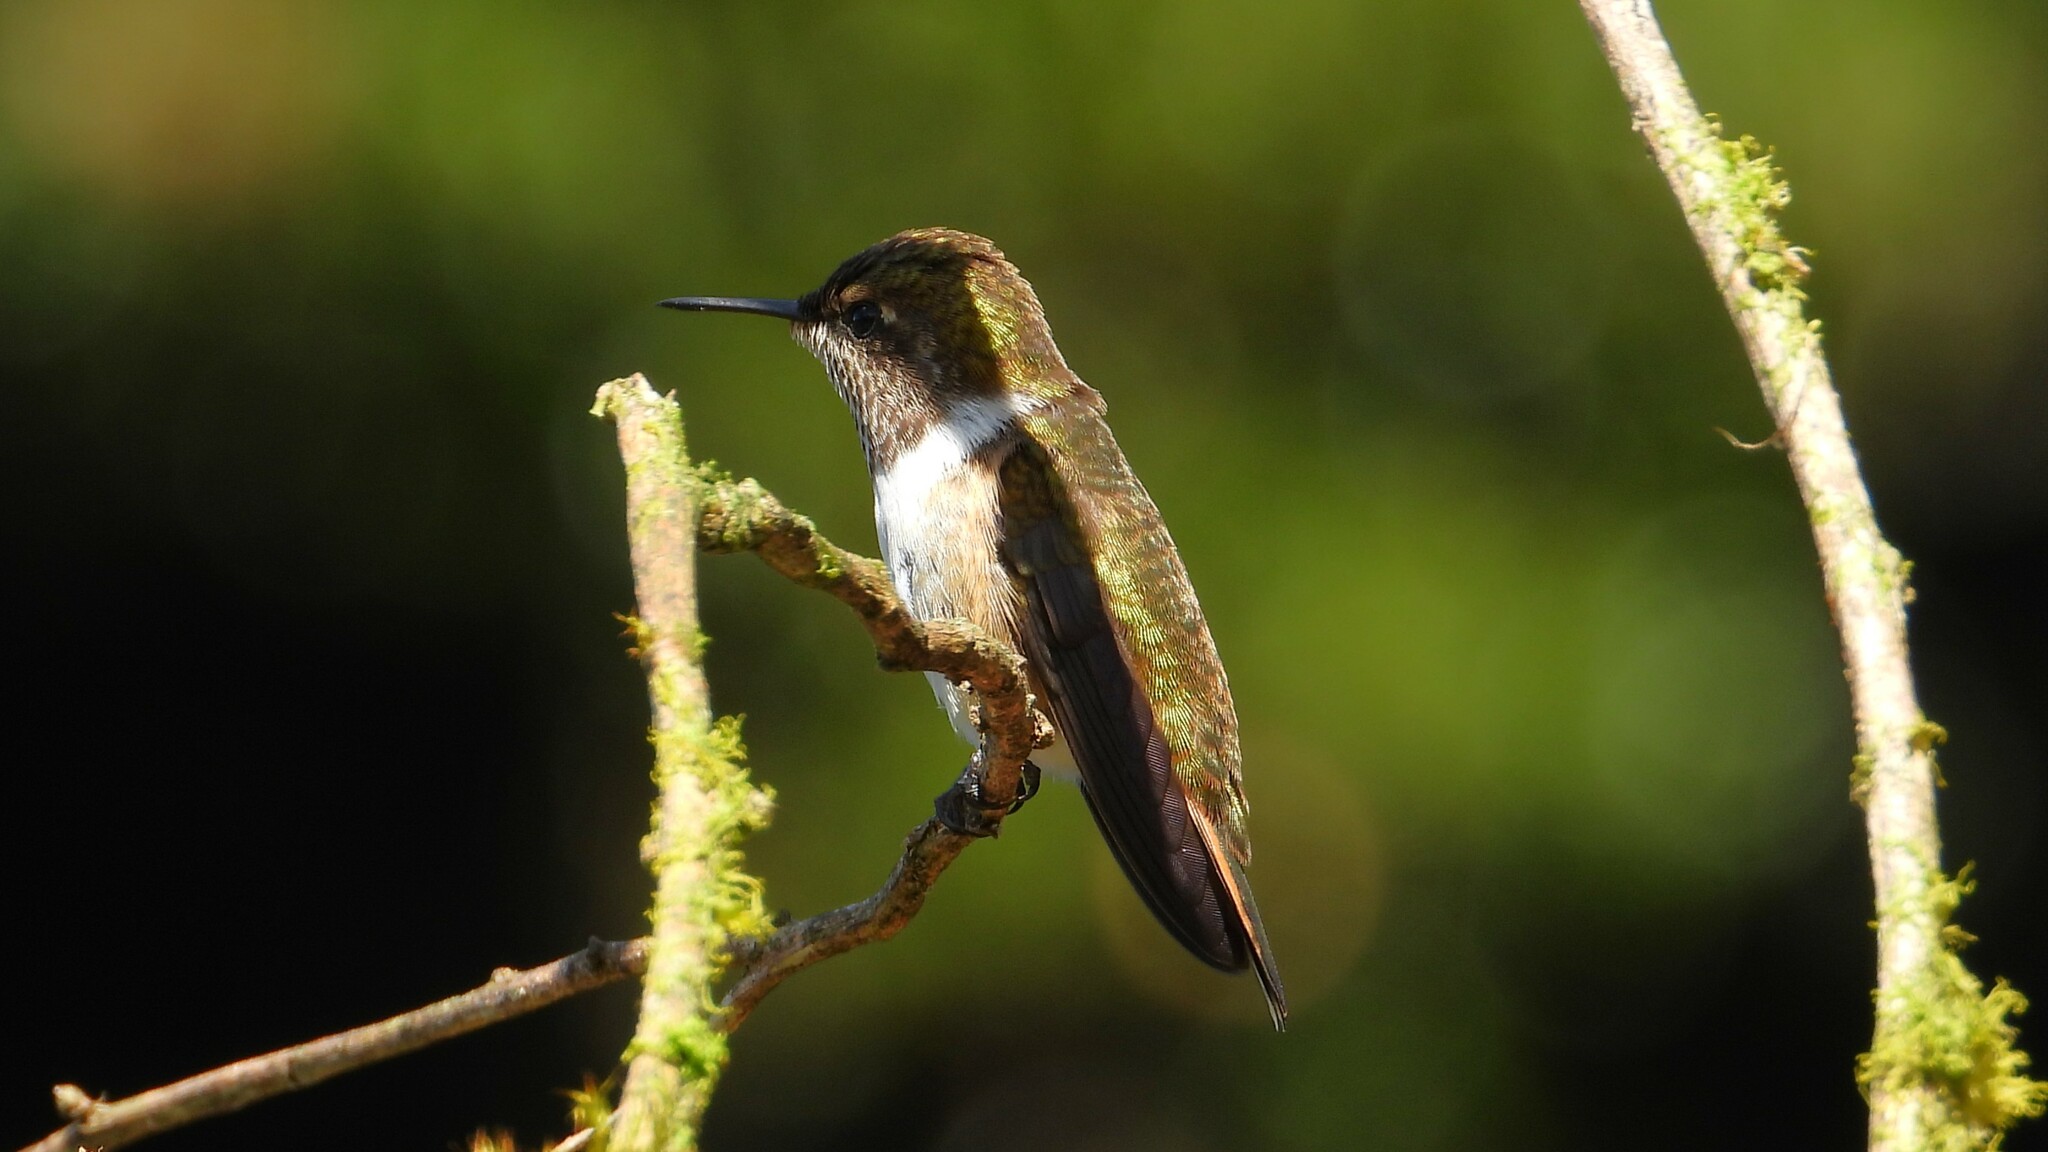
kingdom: Animalia
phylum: Chordata
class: Aves
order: Apodiformes
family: Trochilidae
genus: Selasphorus
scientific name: Selasphorus flammula
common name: Volcano hummingbird
